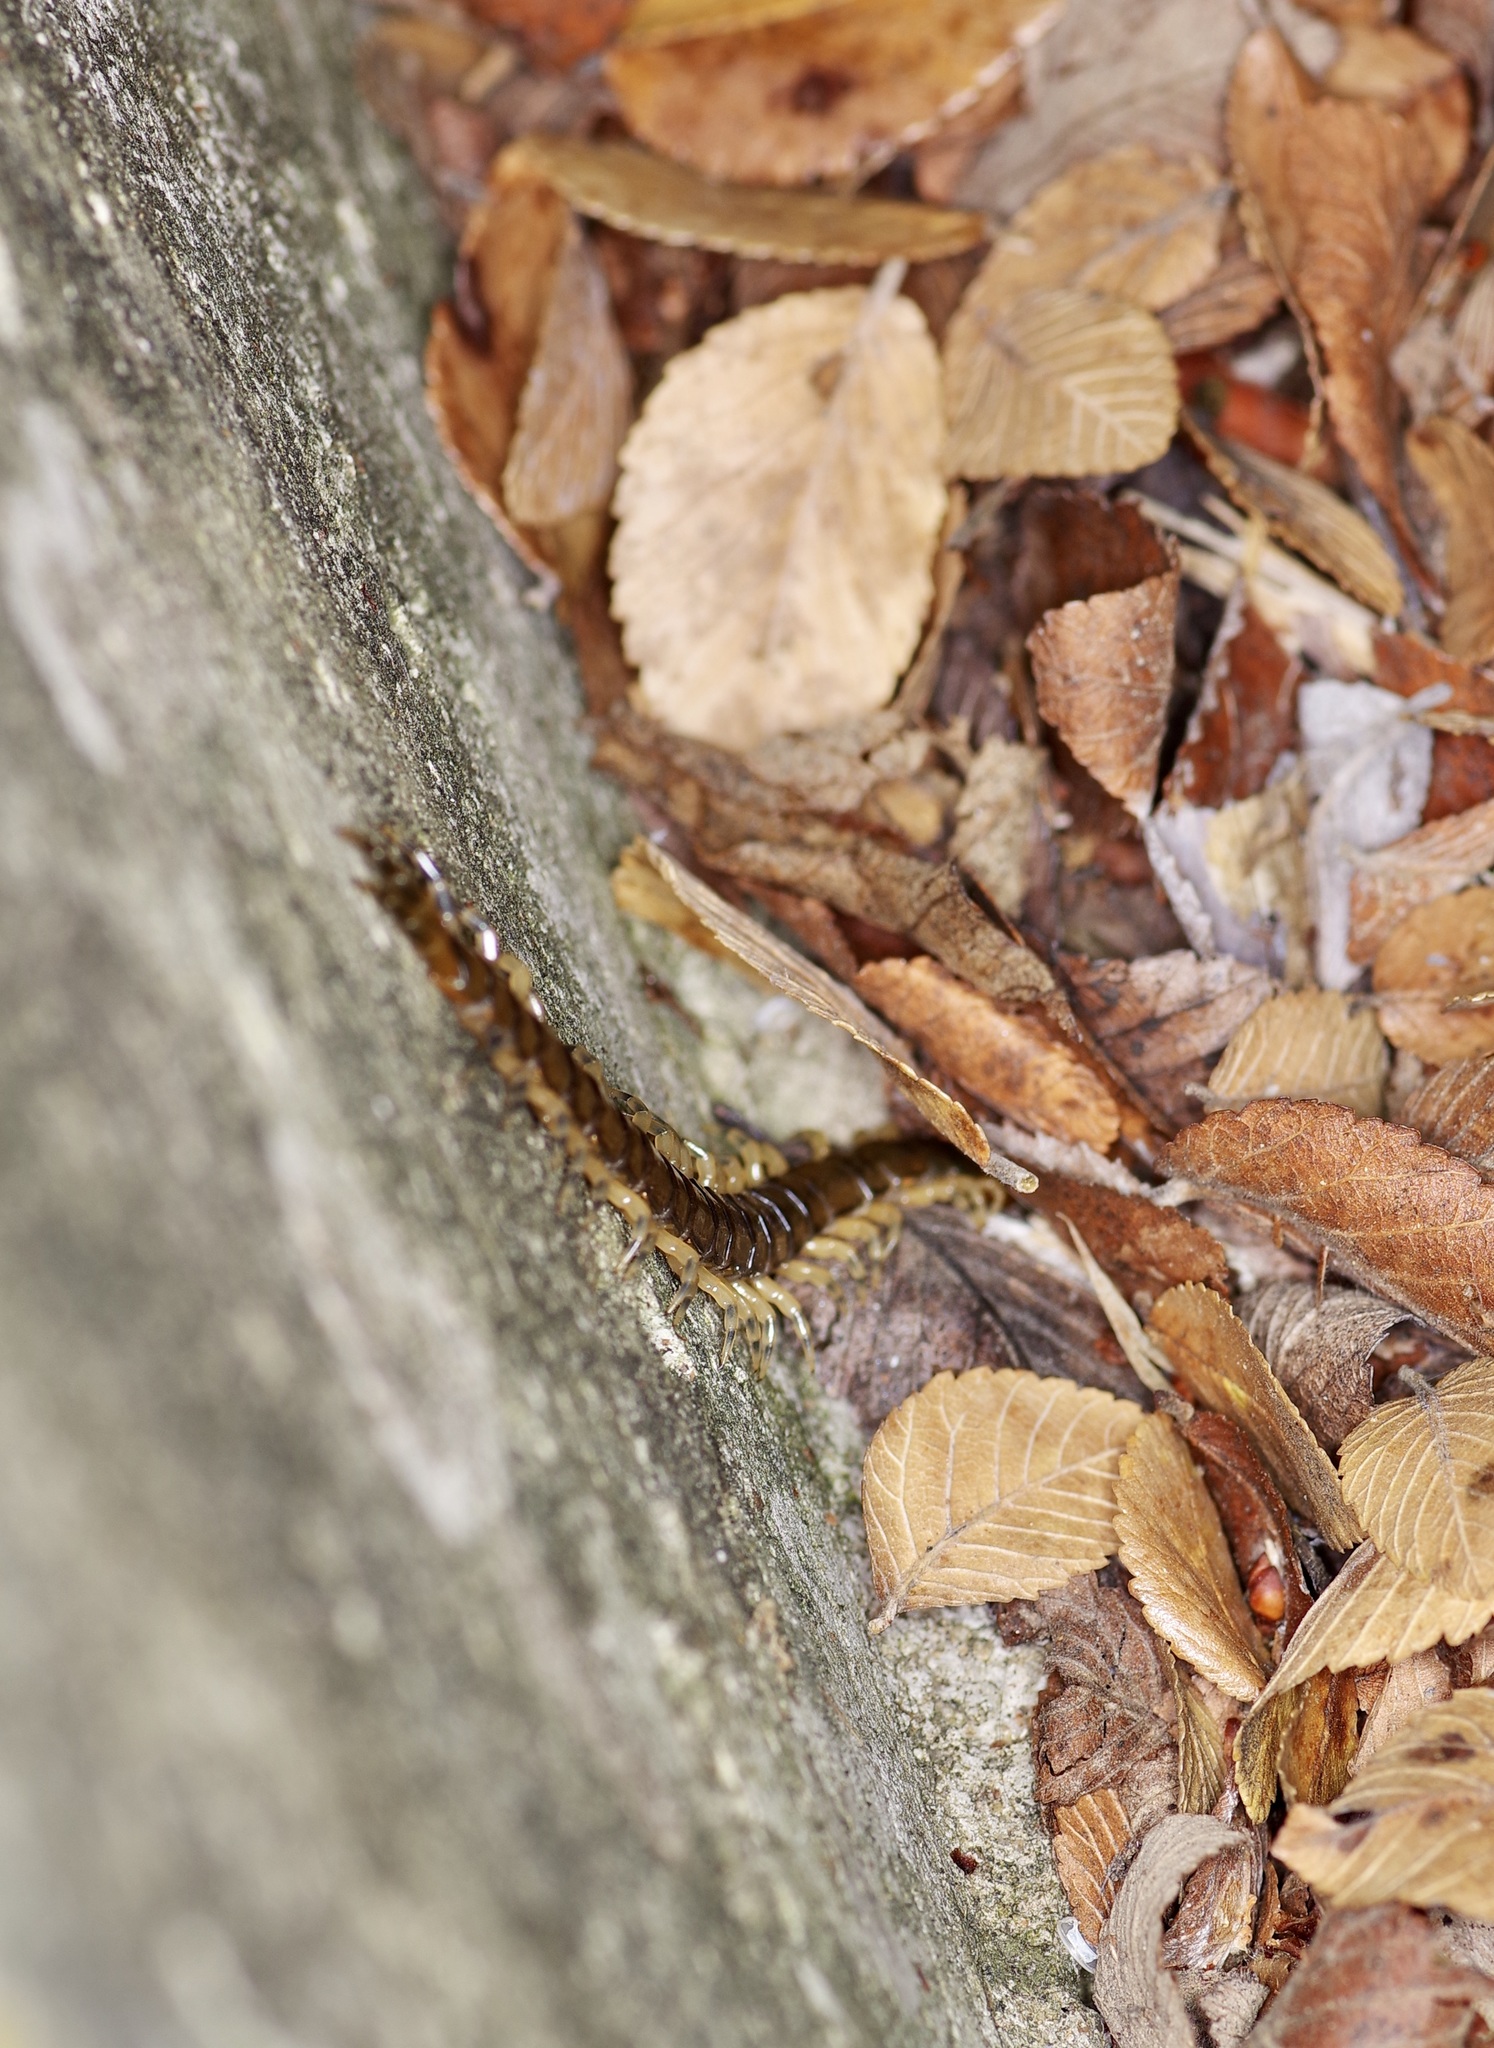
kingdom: Animalia
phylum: Arthropoda
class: Chilopoda
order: Scolopendromorpha
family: Scolopendridae
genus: Hemiscolopendra
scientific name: Hemiscolopendra marginata
